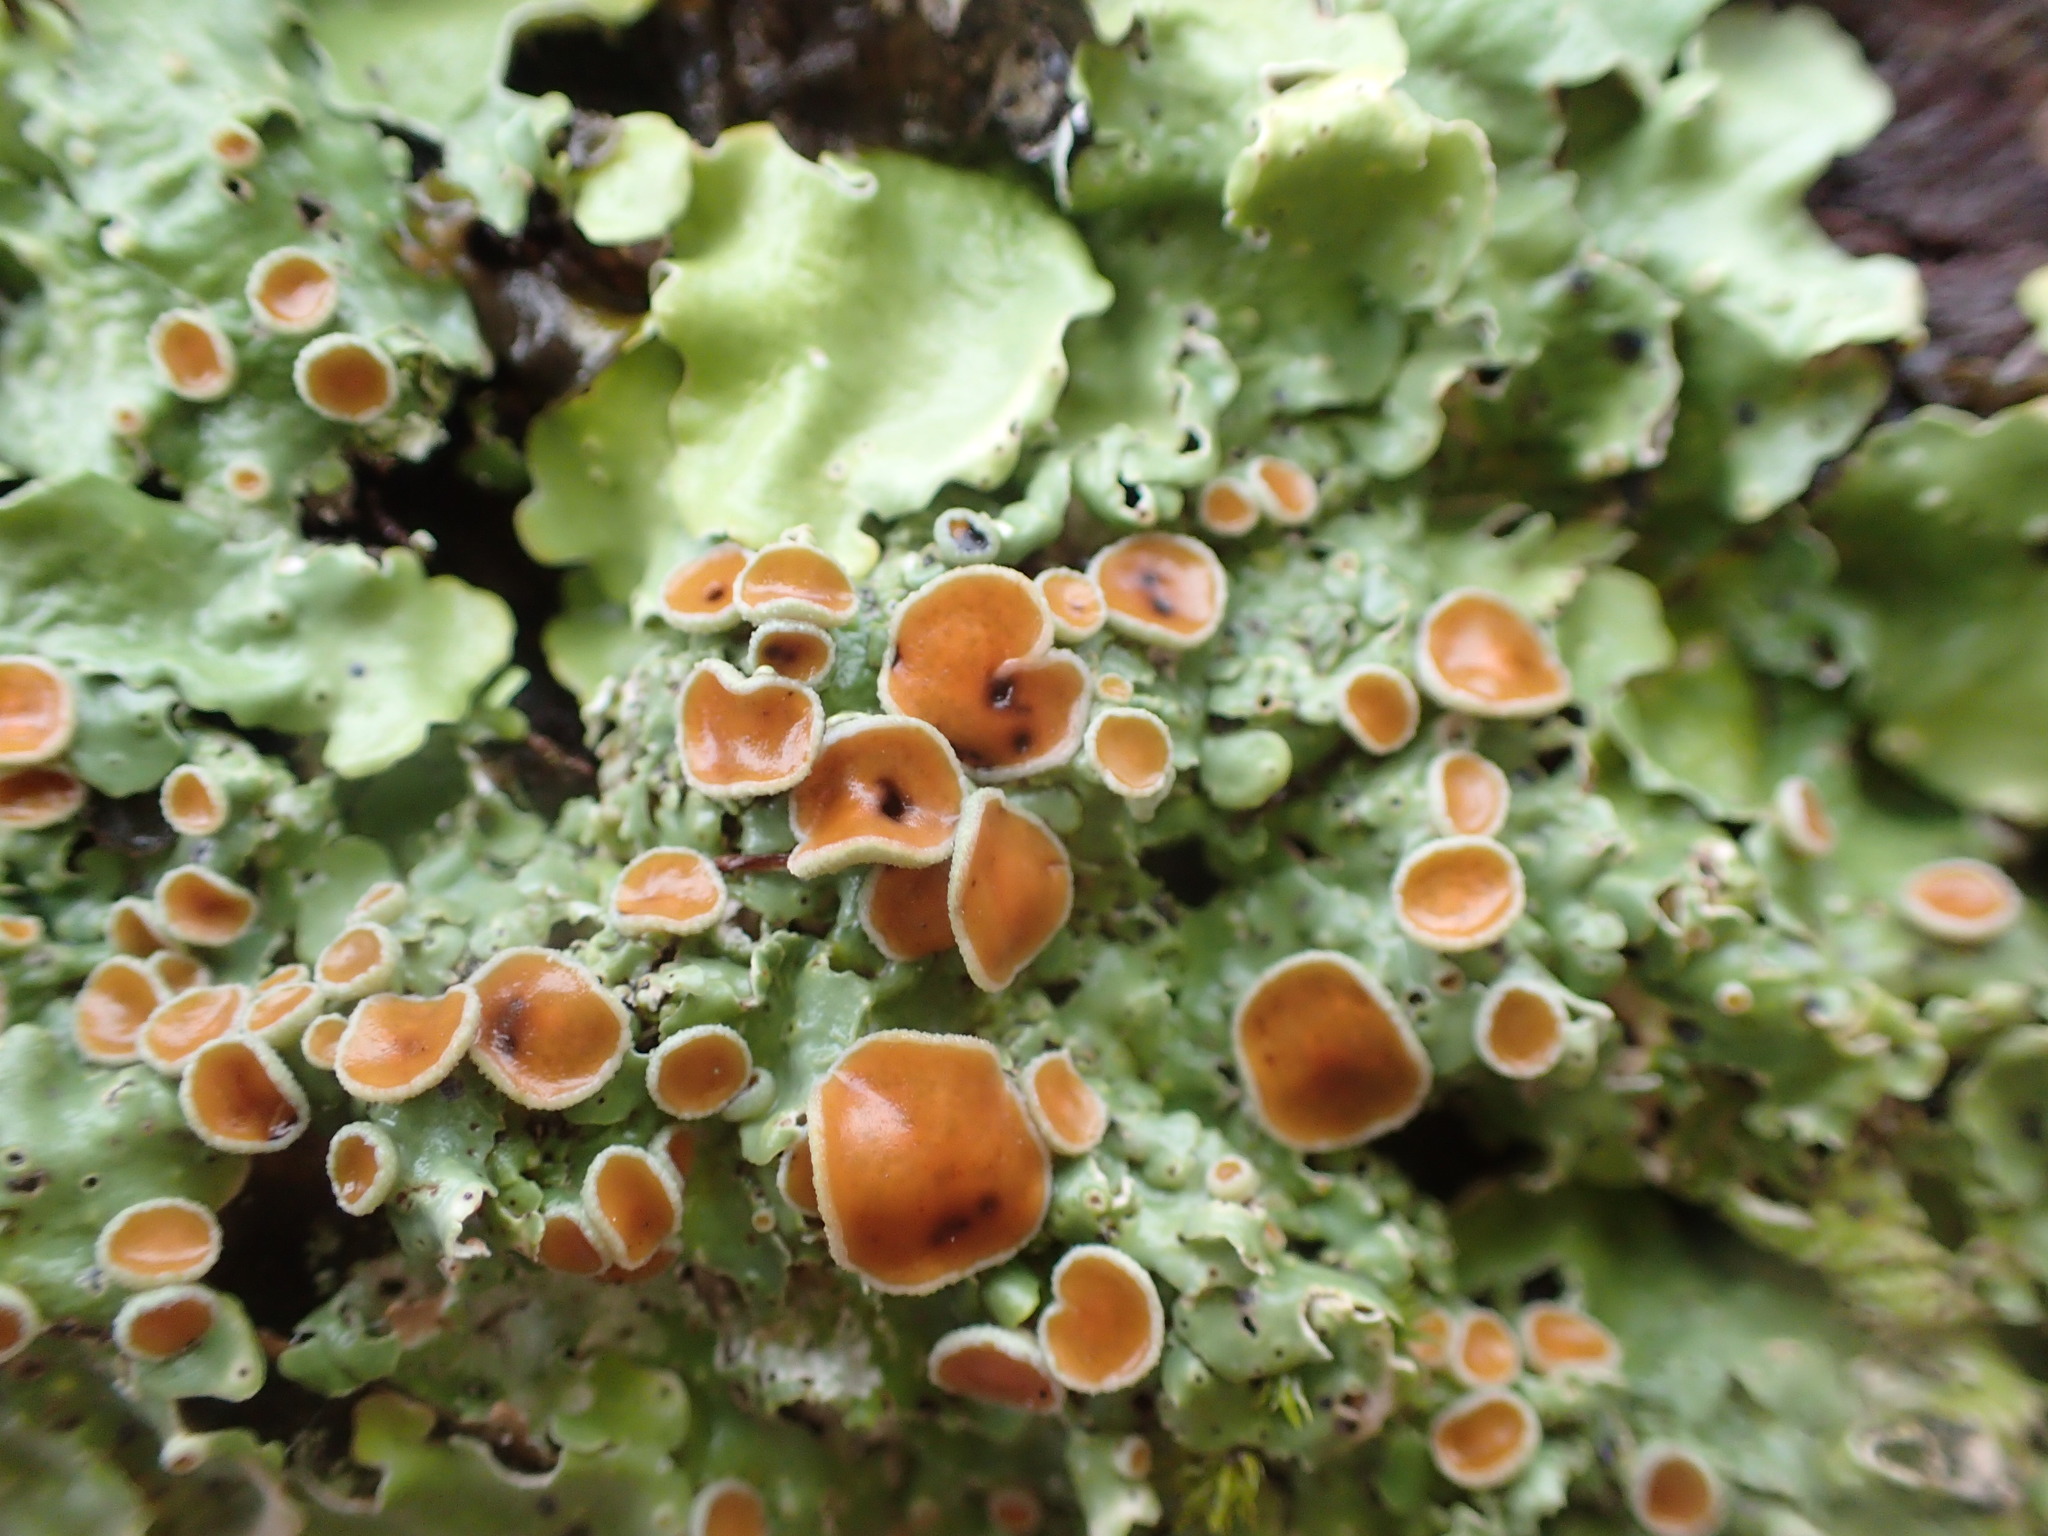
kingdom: Fungi
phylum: Ascomycota
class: Lecanoromycetes
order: Peltigerales
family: Lobariaceae
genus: Ricasolia
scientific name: Ricasolia quercizans
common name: Smooth lungwort
